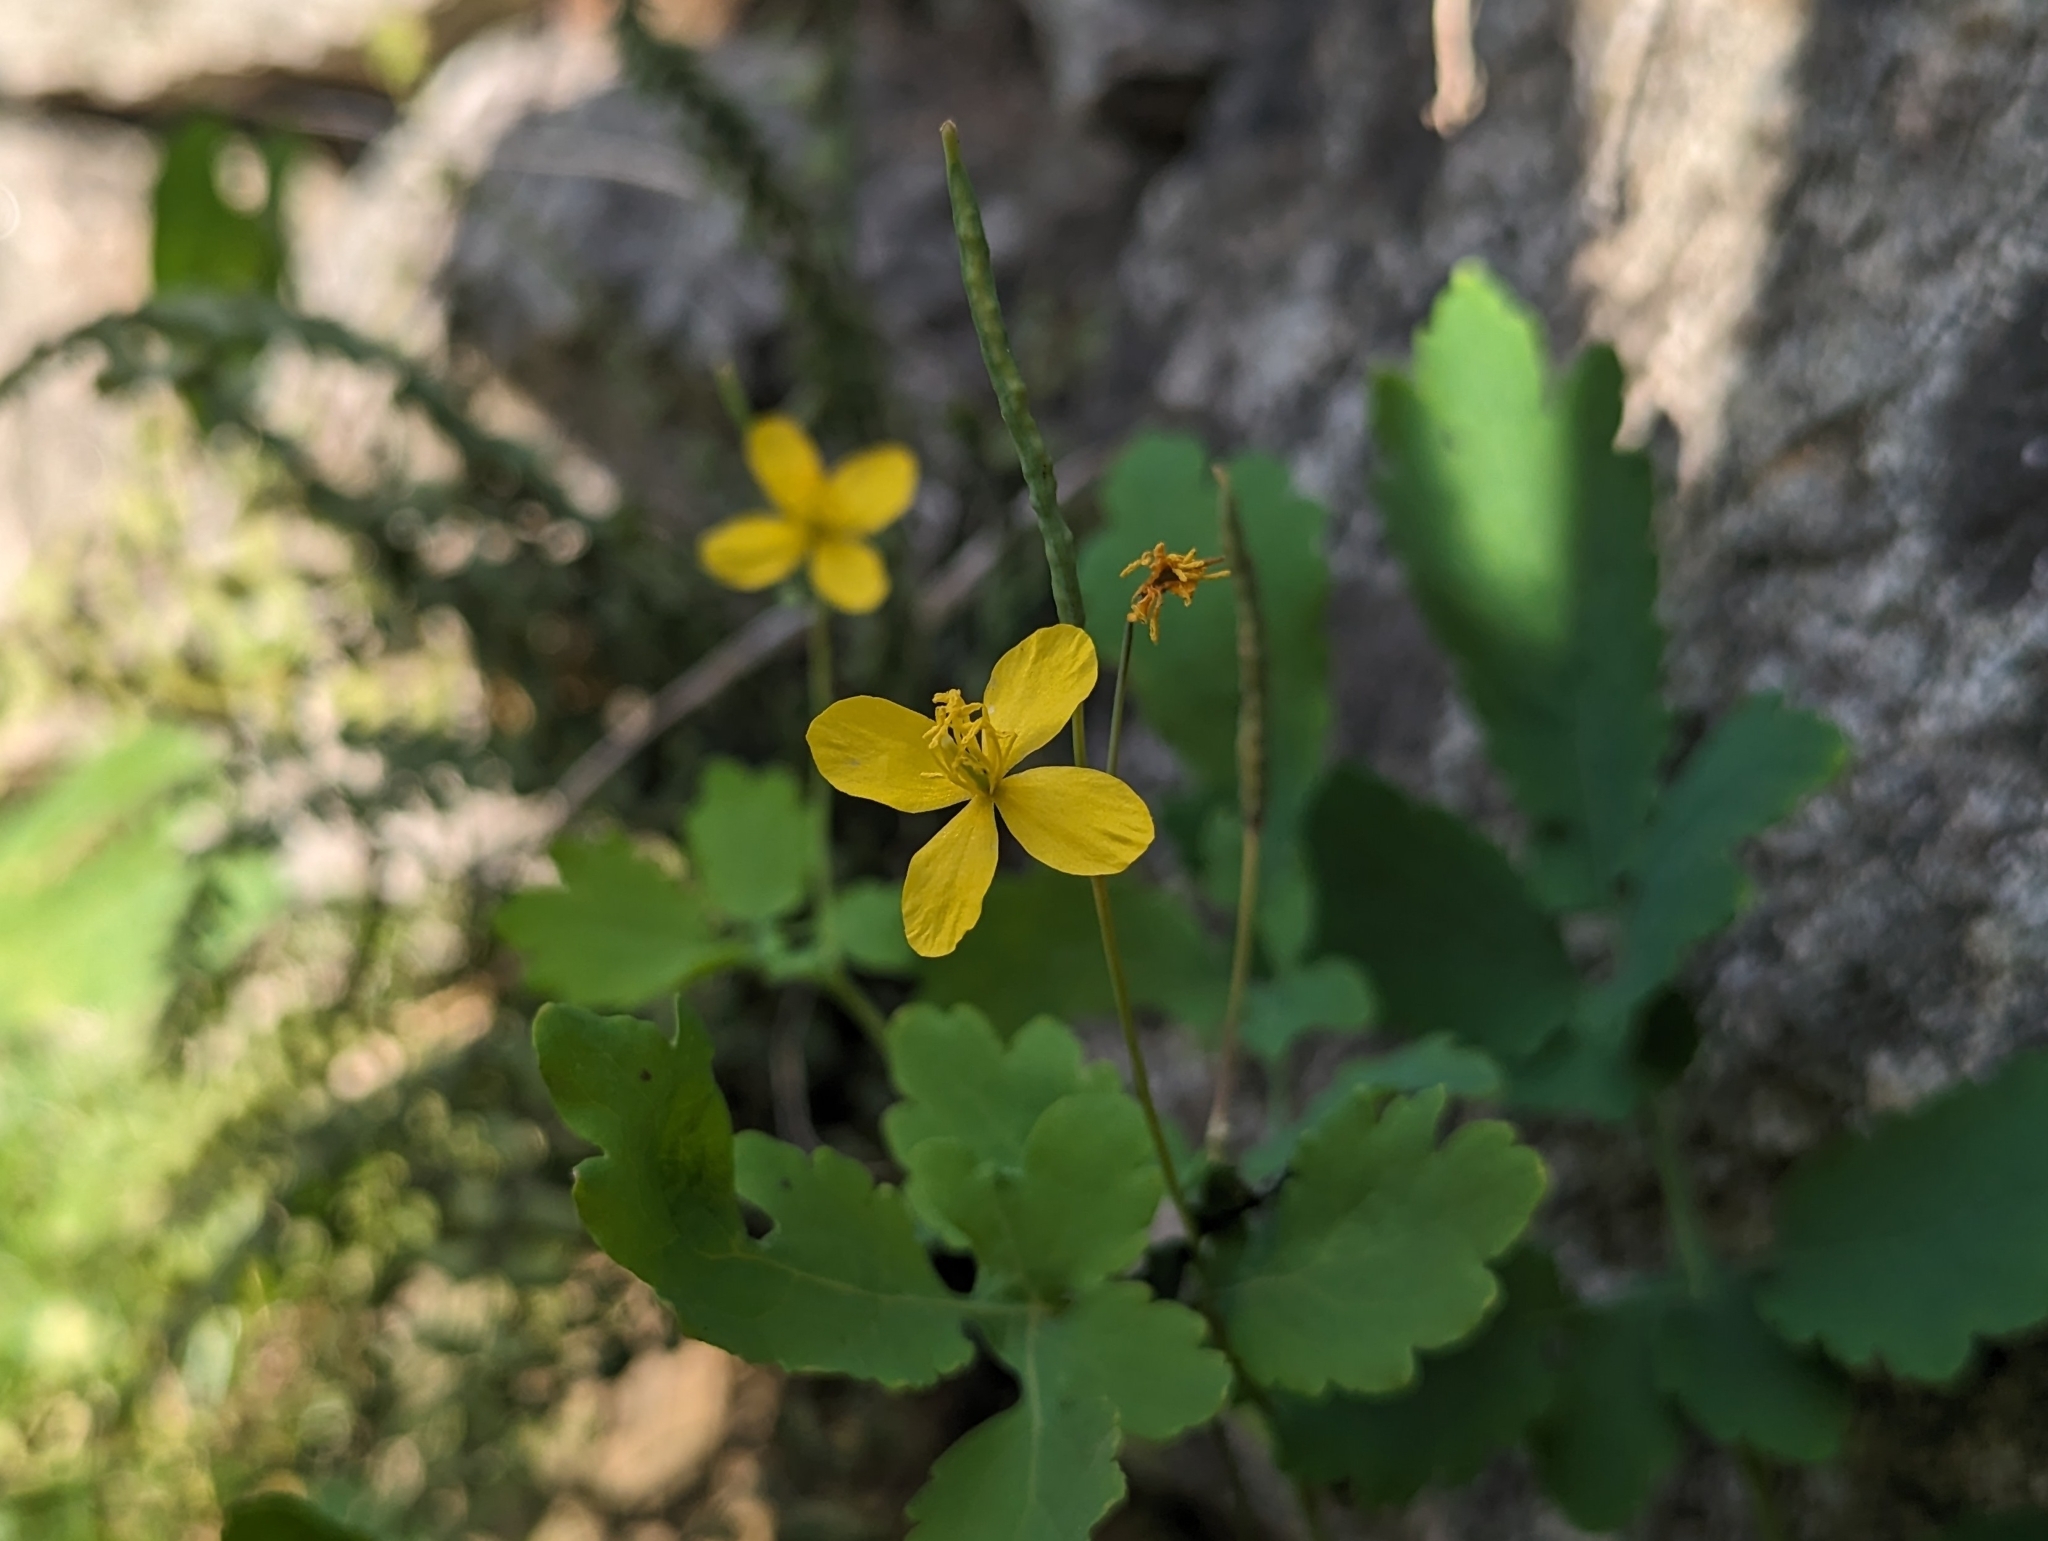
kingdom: Plantae
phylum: Tracheophyta
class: Magnoliopsida
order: Ranunculales
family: Papaveraceae
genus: Chelidonium
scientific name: Chelidonium majus
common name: Greater celandine
